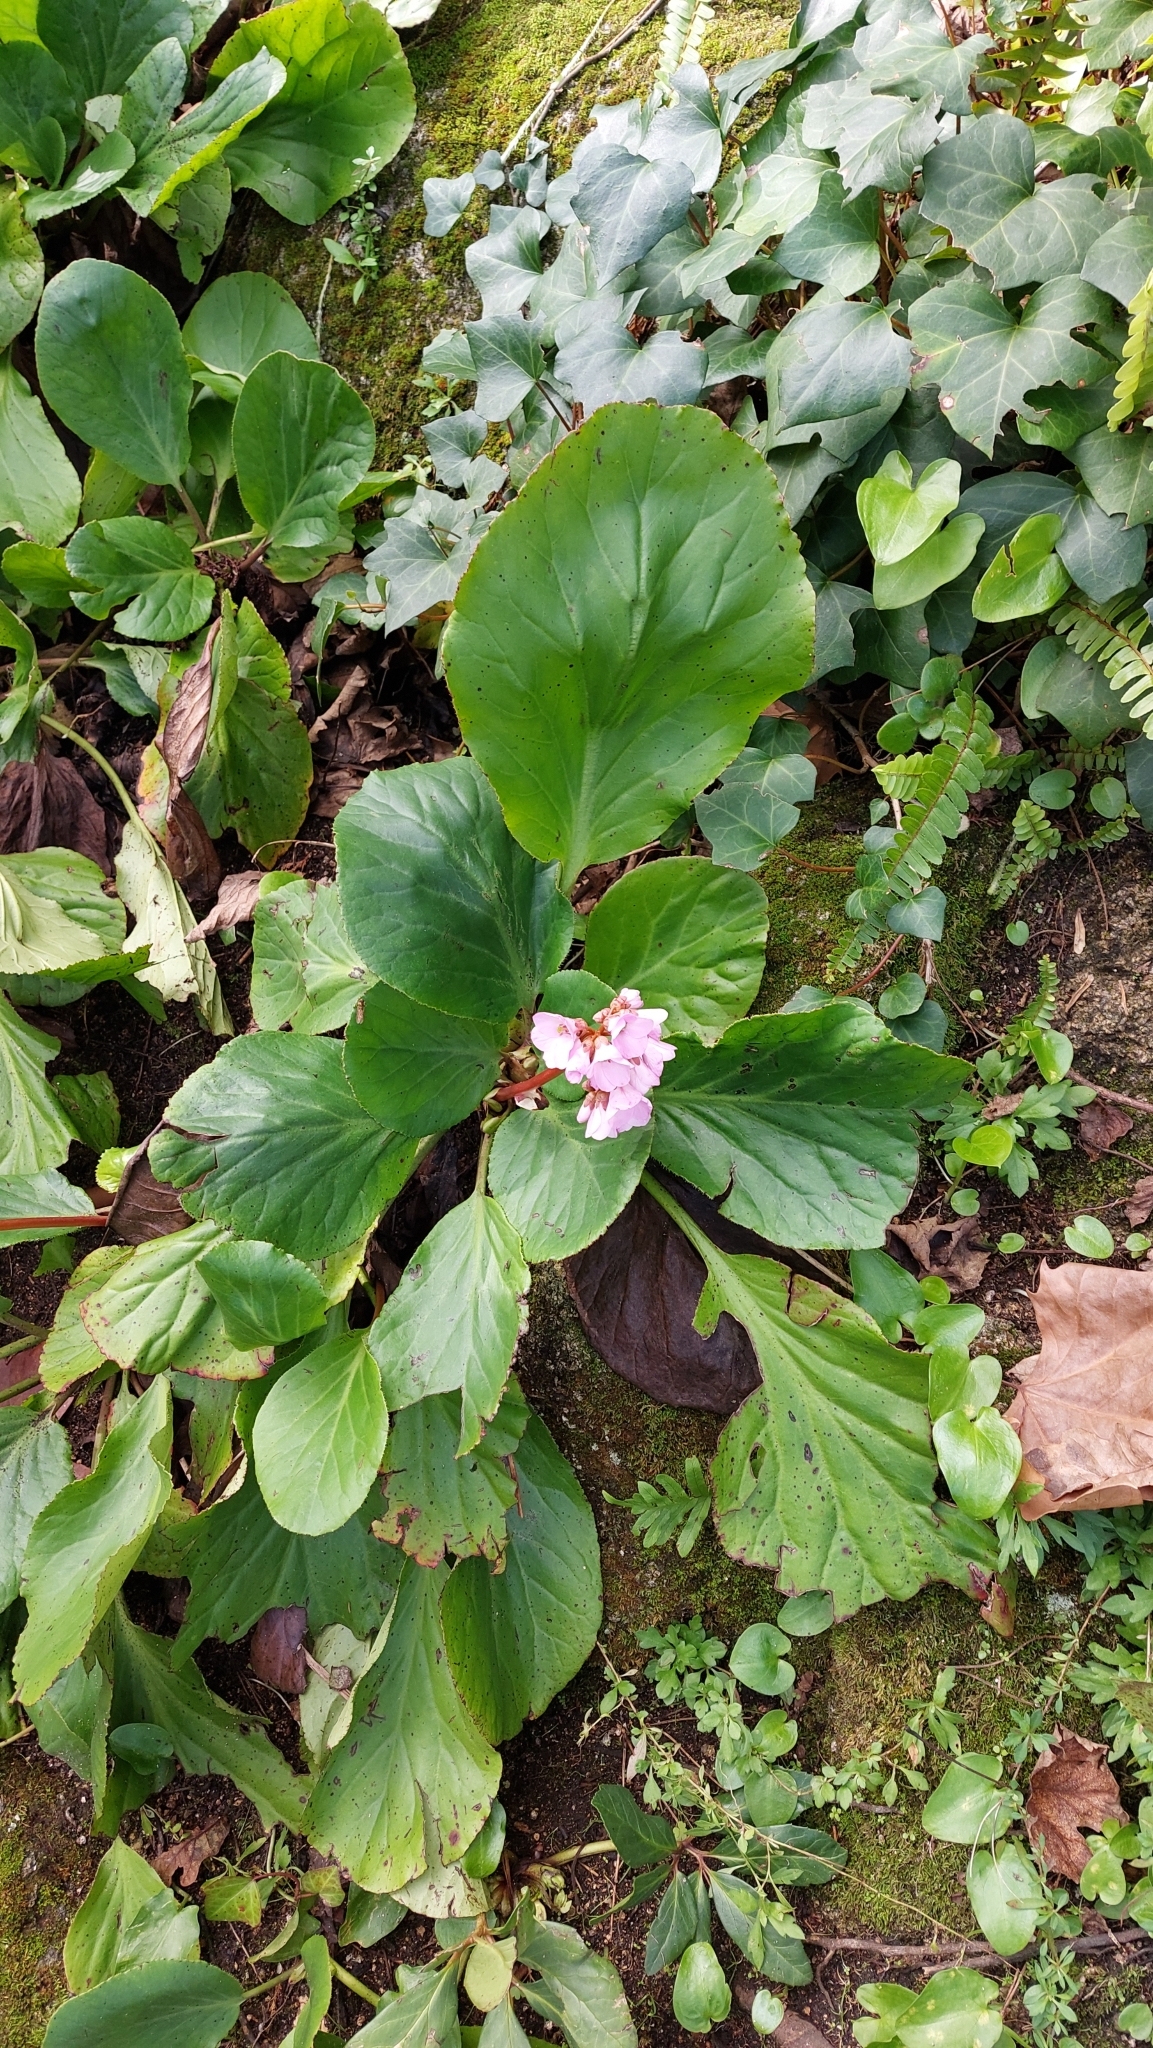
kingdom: Plantae
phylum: Tracheophyta
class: Magnoliopsida
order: Saxifragales
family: Saxifragaceae
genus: Bergenia
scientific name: Bergenia crassifolia
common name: Elephant-ears
